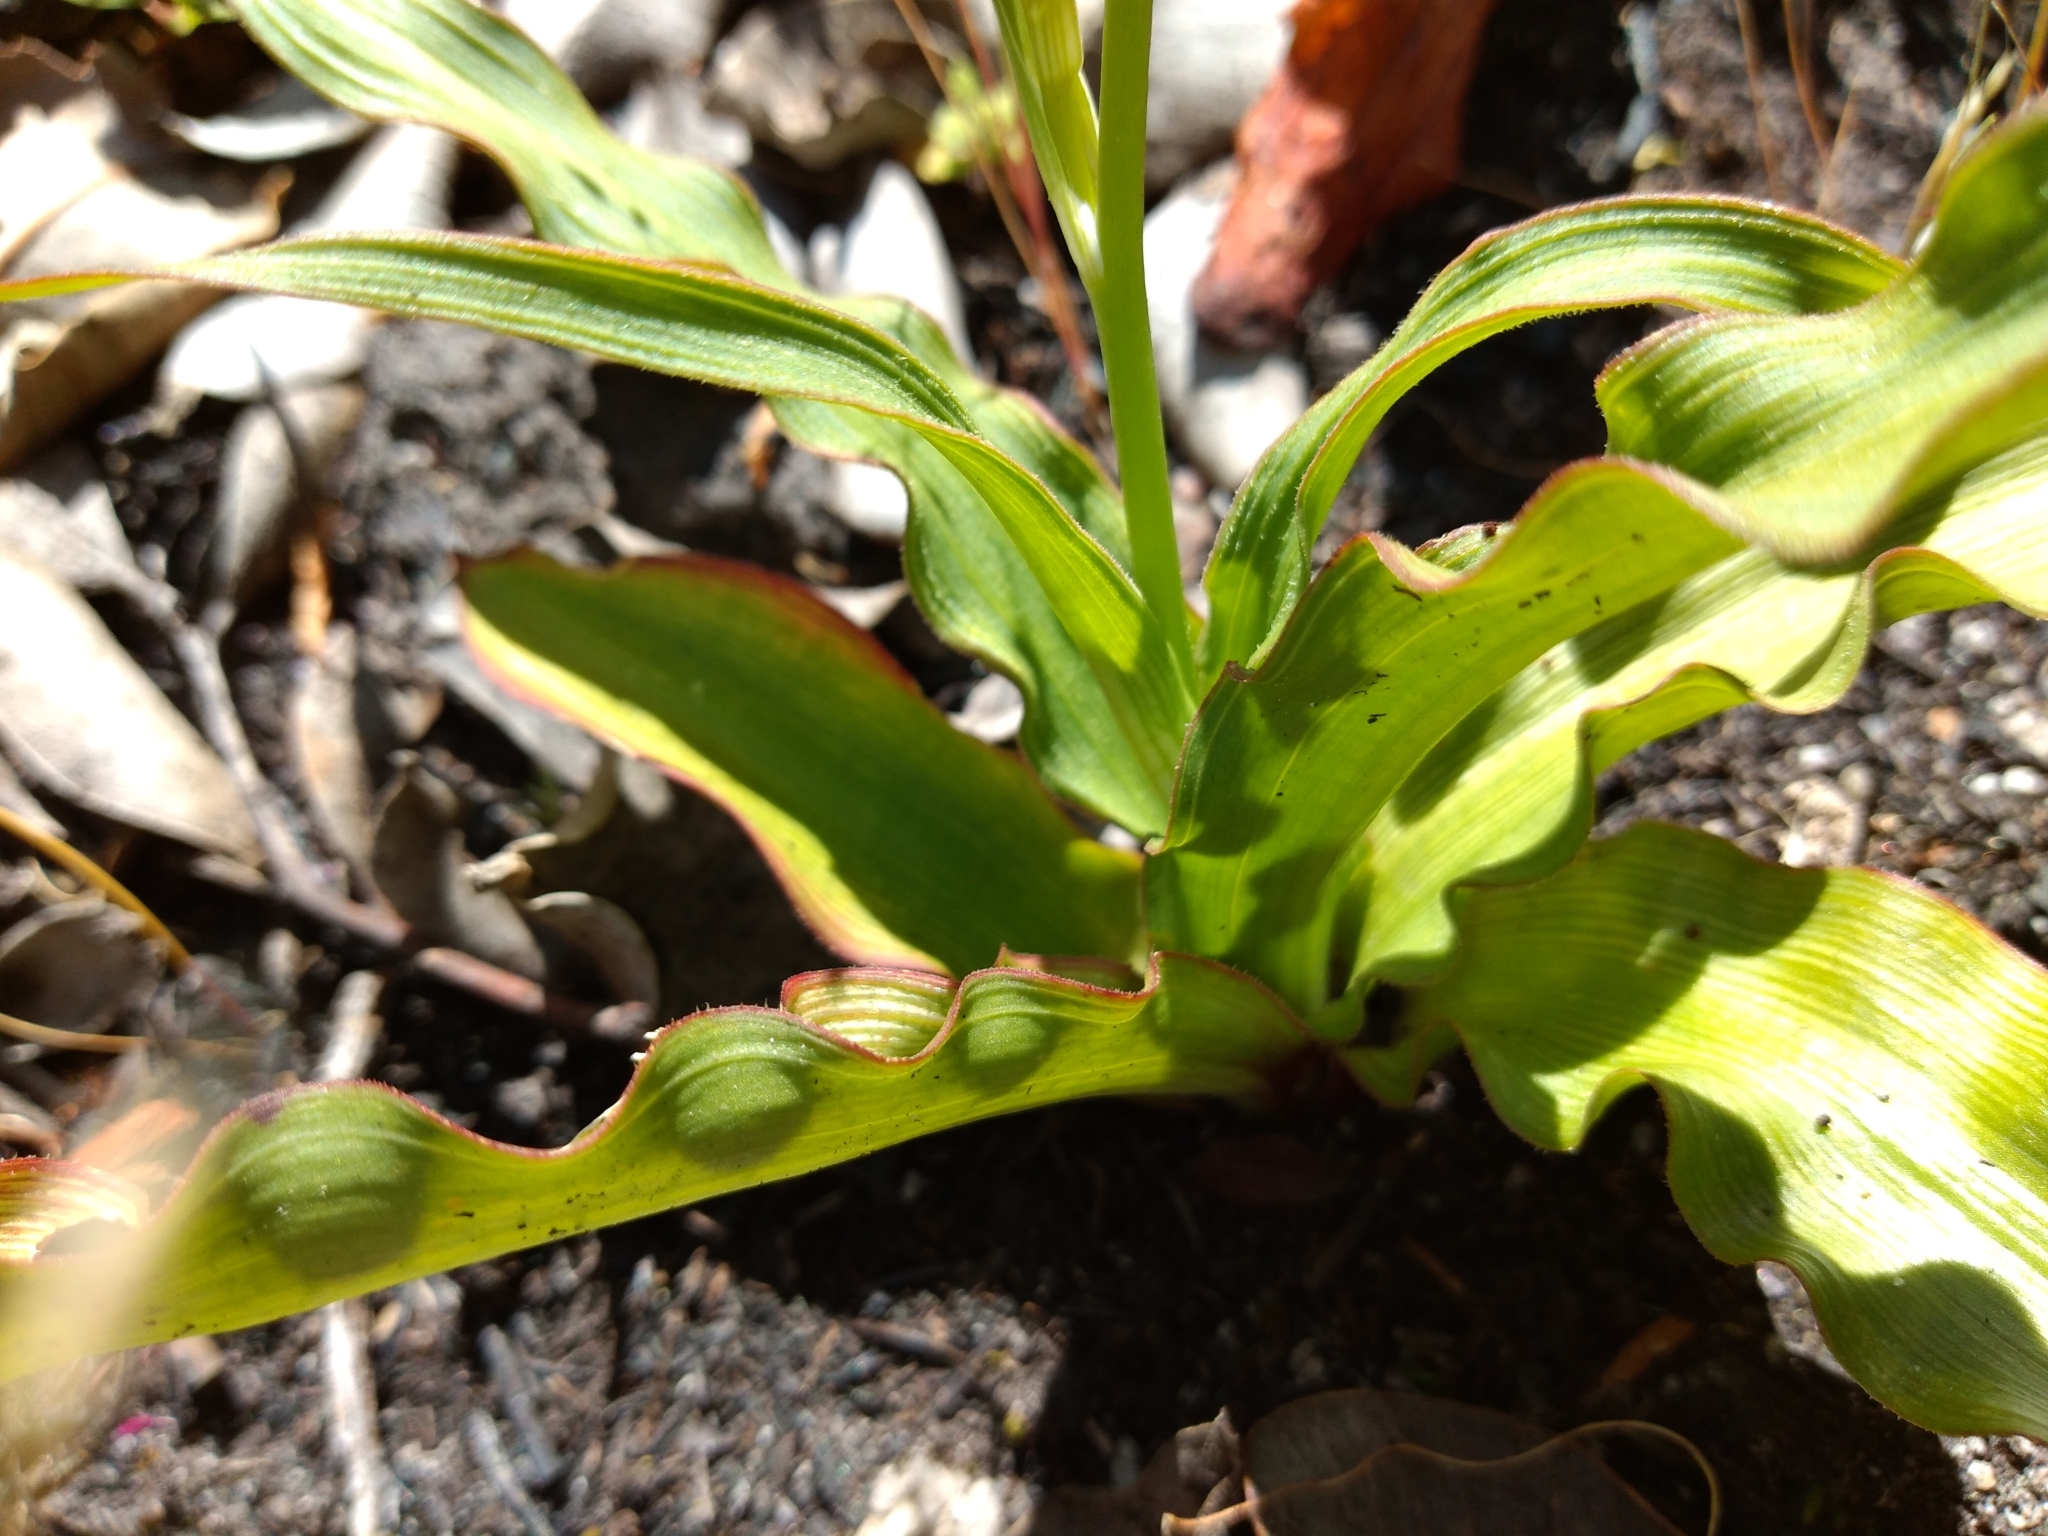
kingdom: Plantae
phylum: Tracheophyta
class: Liliopsida
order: Asparagales
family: Tecophilaeaceae
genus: Cyanella
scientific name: Cyanella hyacinthoides
